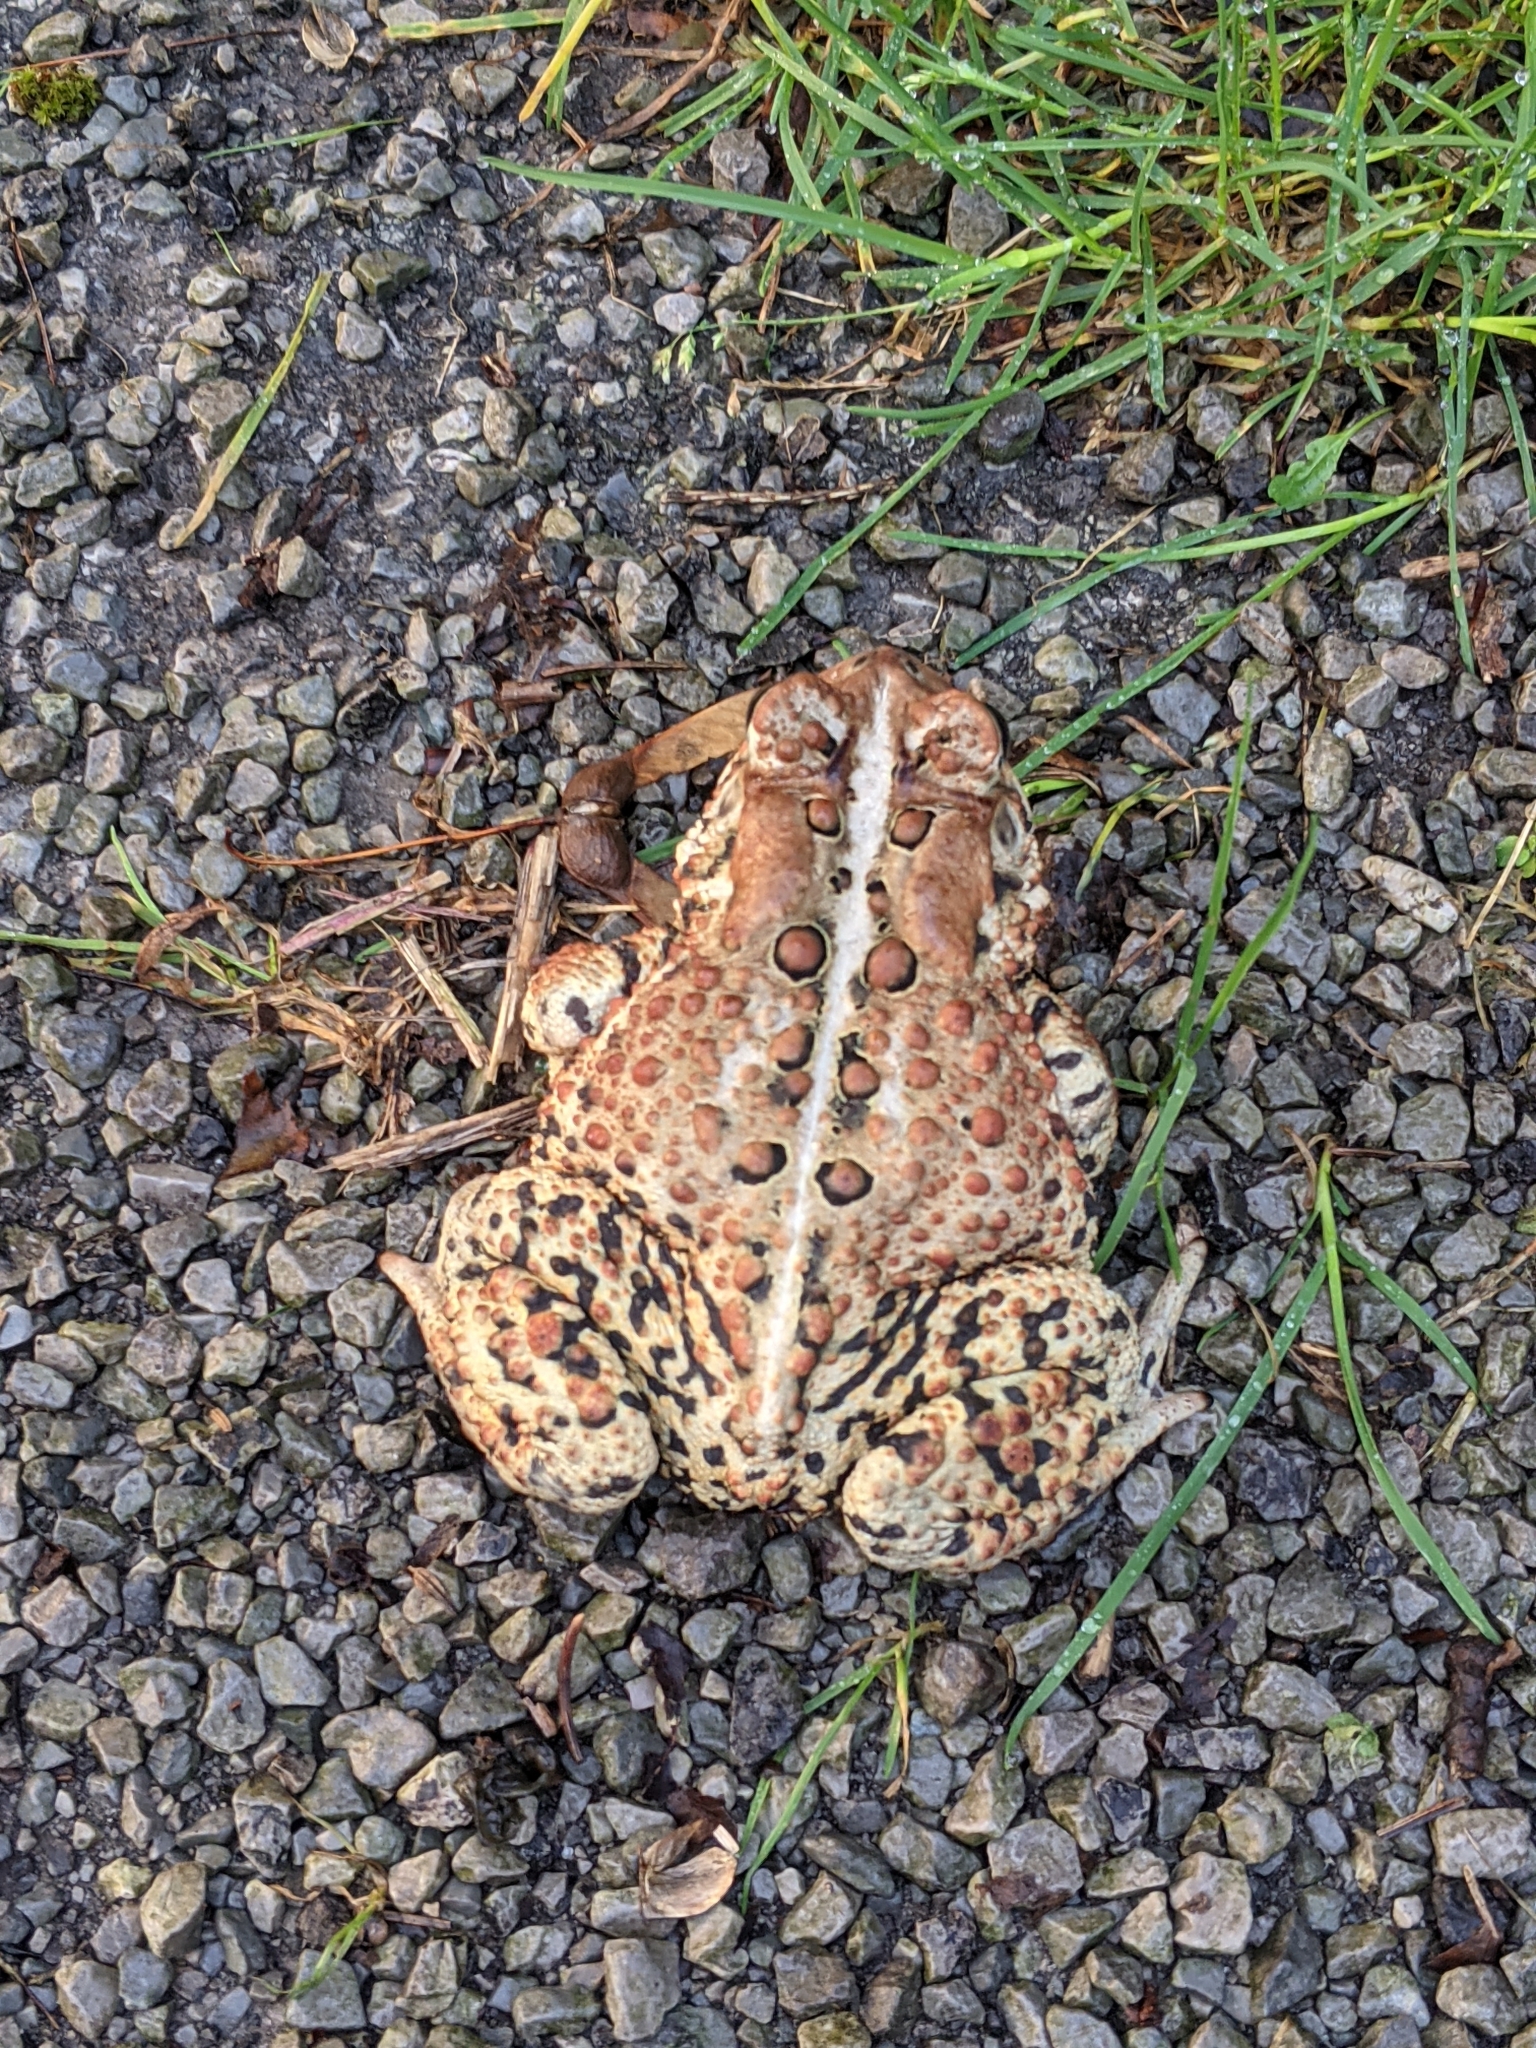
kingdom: Animalia
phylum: Chordata
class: Amphibia
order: Anura
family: Bufonidae
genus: Anaxyrus
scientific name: Anaxyrus americanus
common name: American toad
